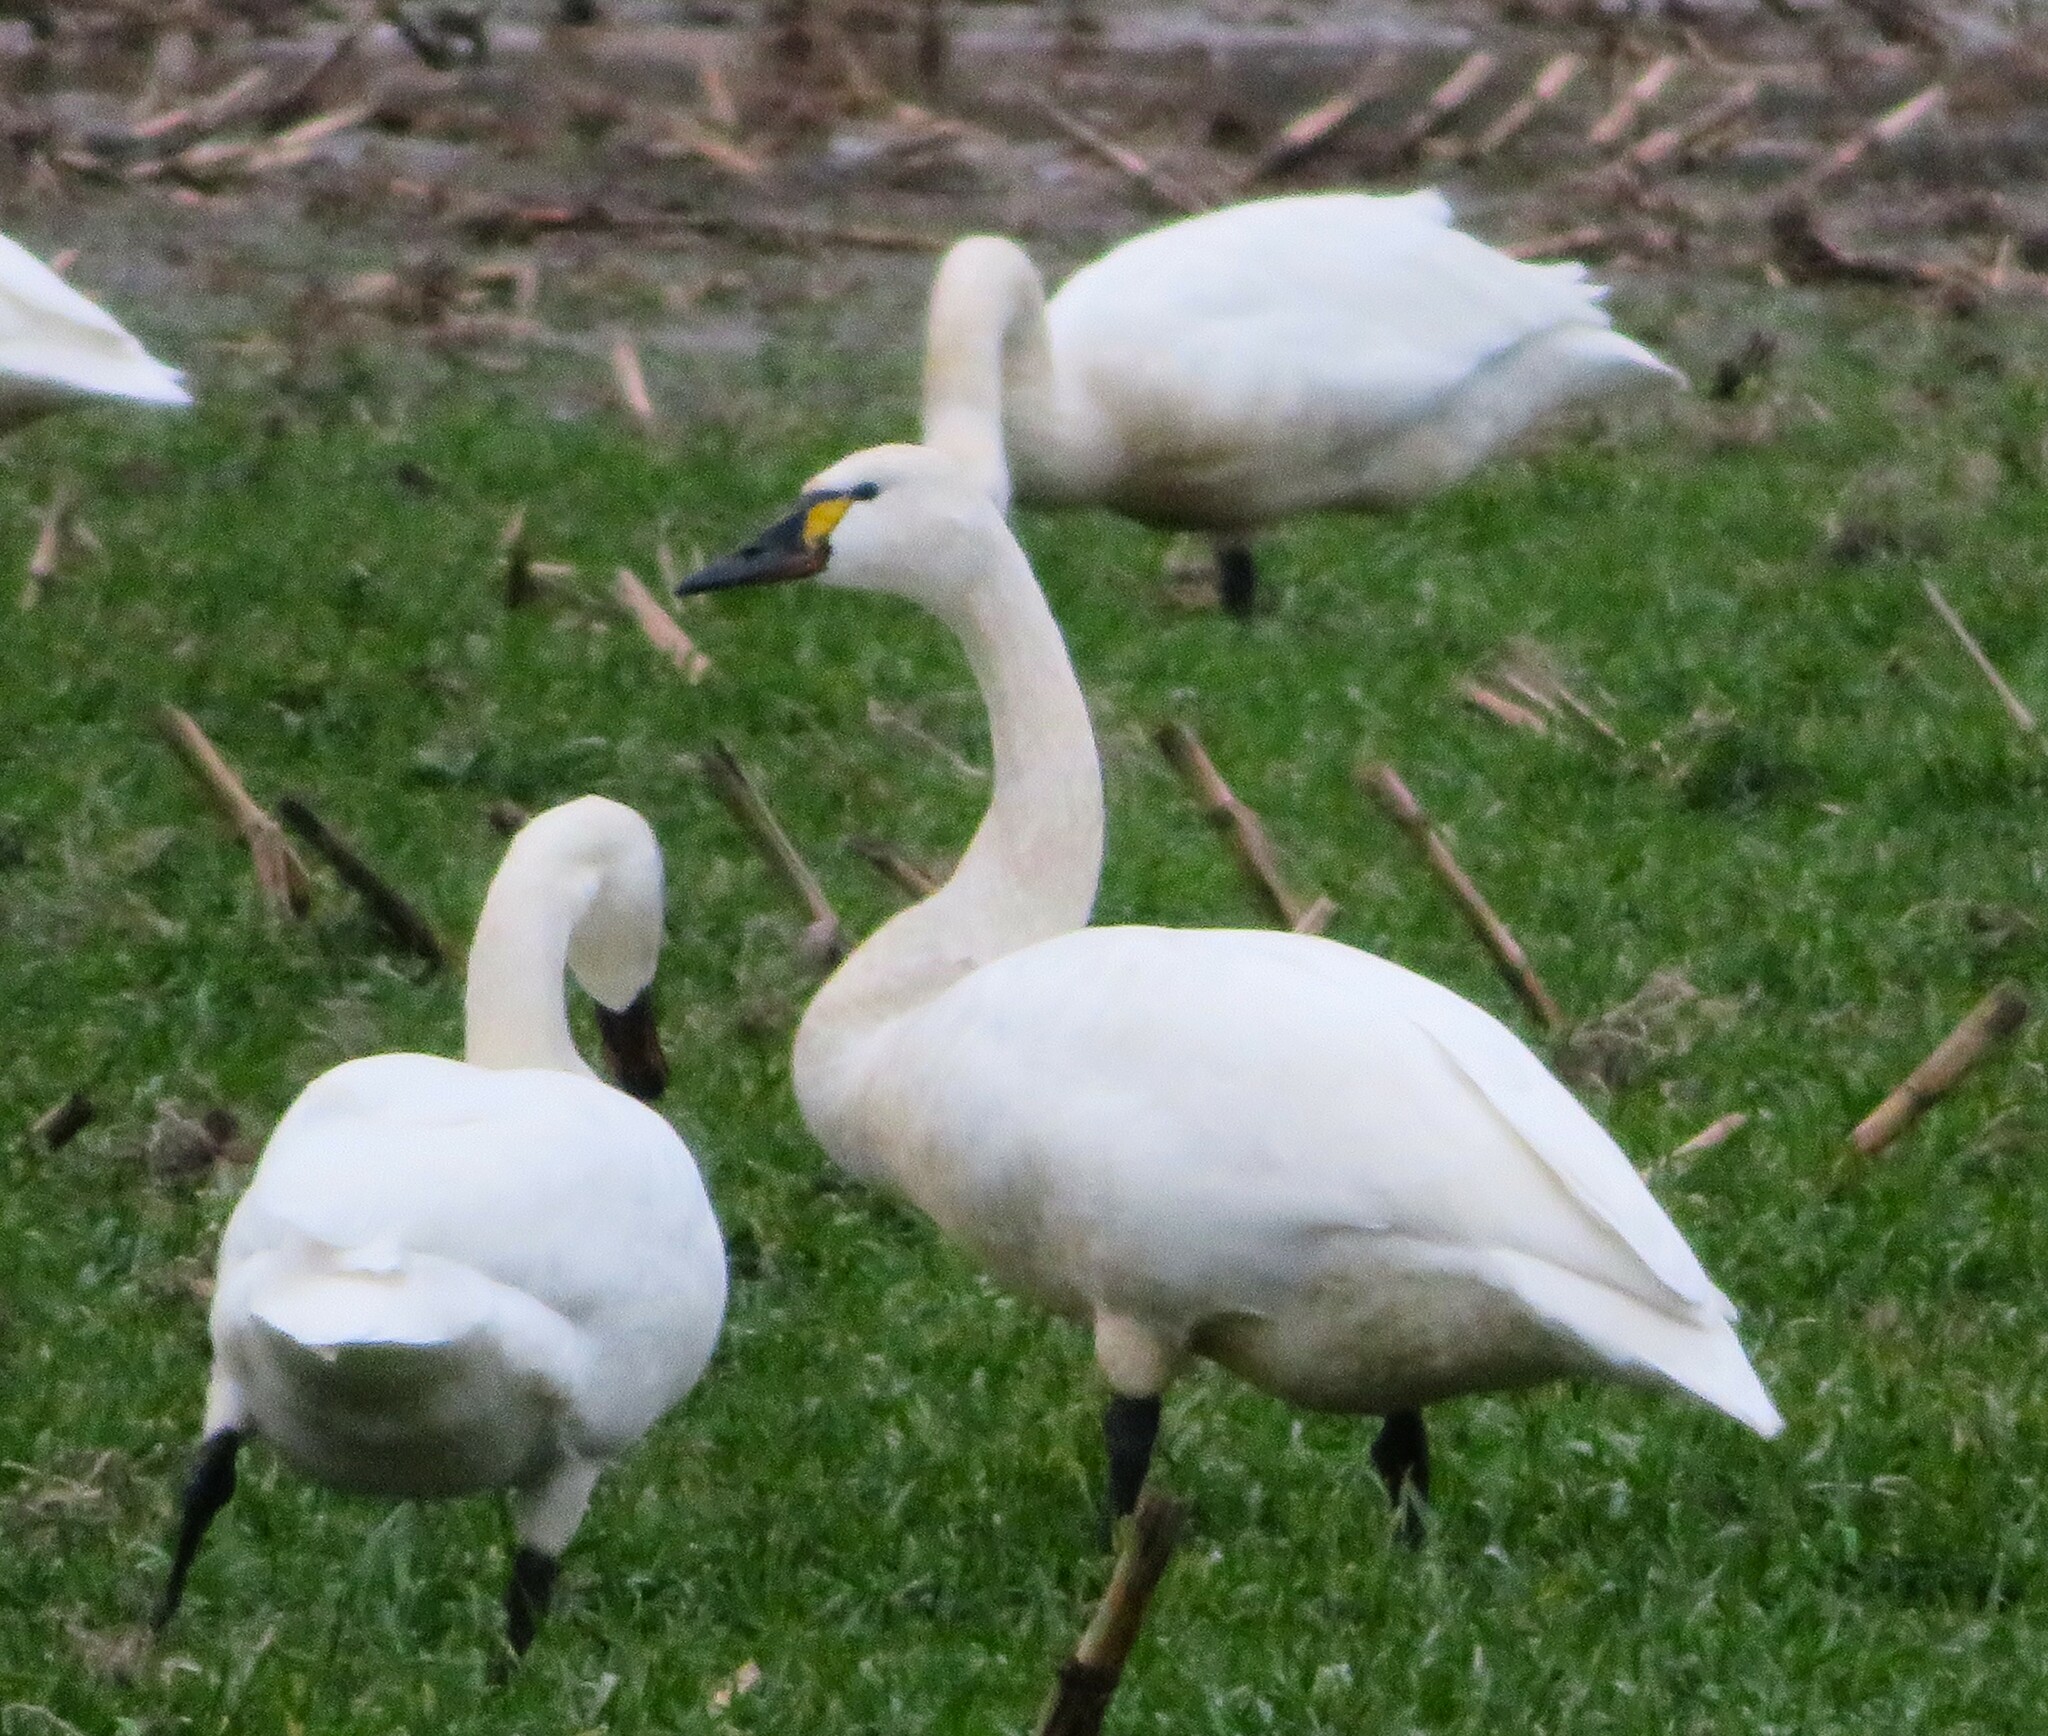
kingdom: Animalia
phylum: Chordata
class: Aves
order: Anseriformes
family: Anatidae
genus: Cygnus
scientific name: Cygnus columbianus
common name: Tundra swan
